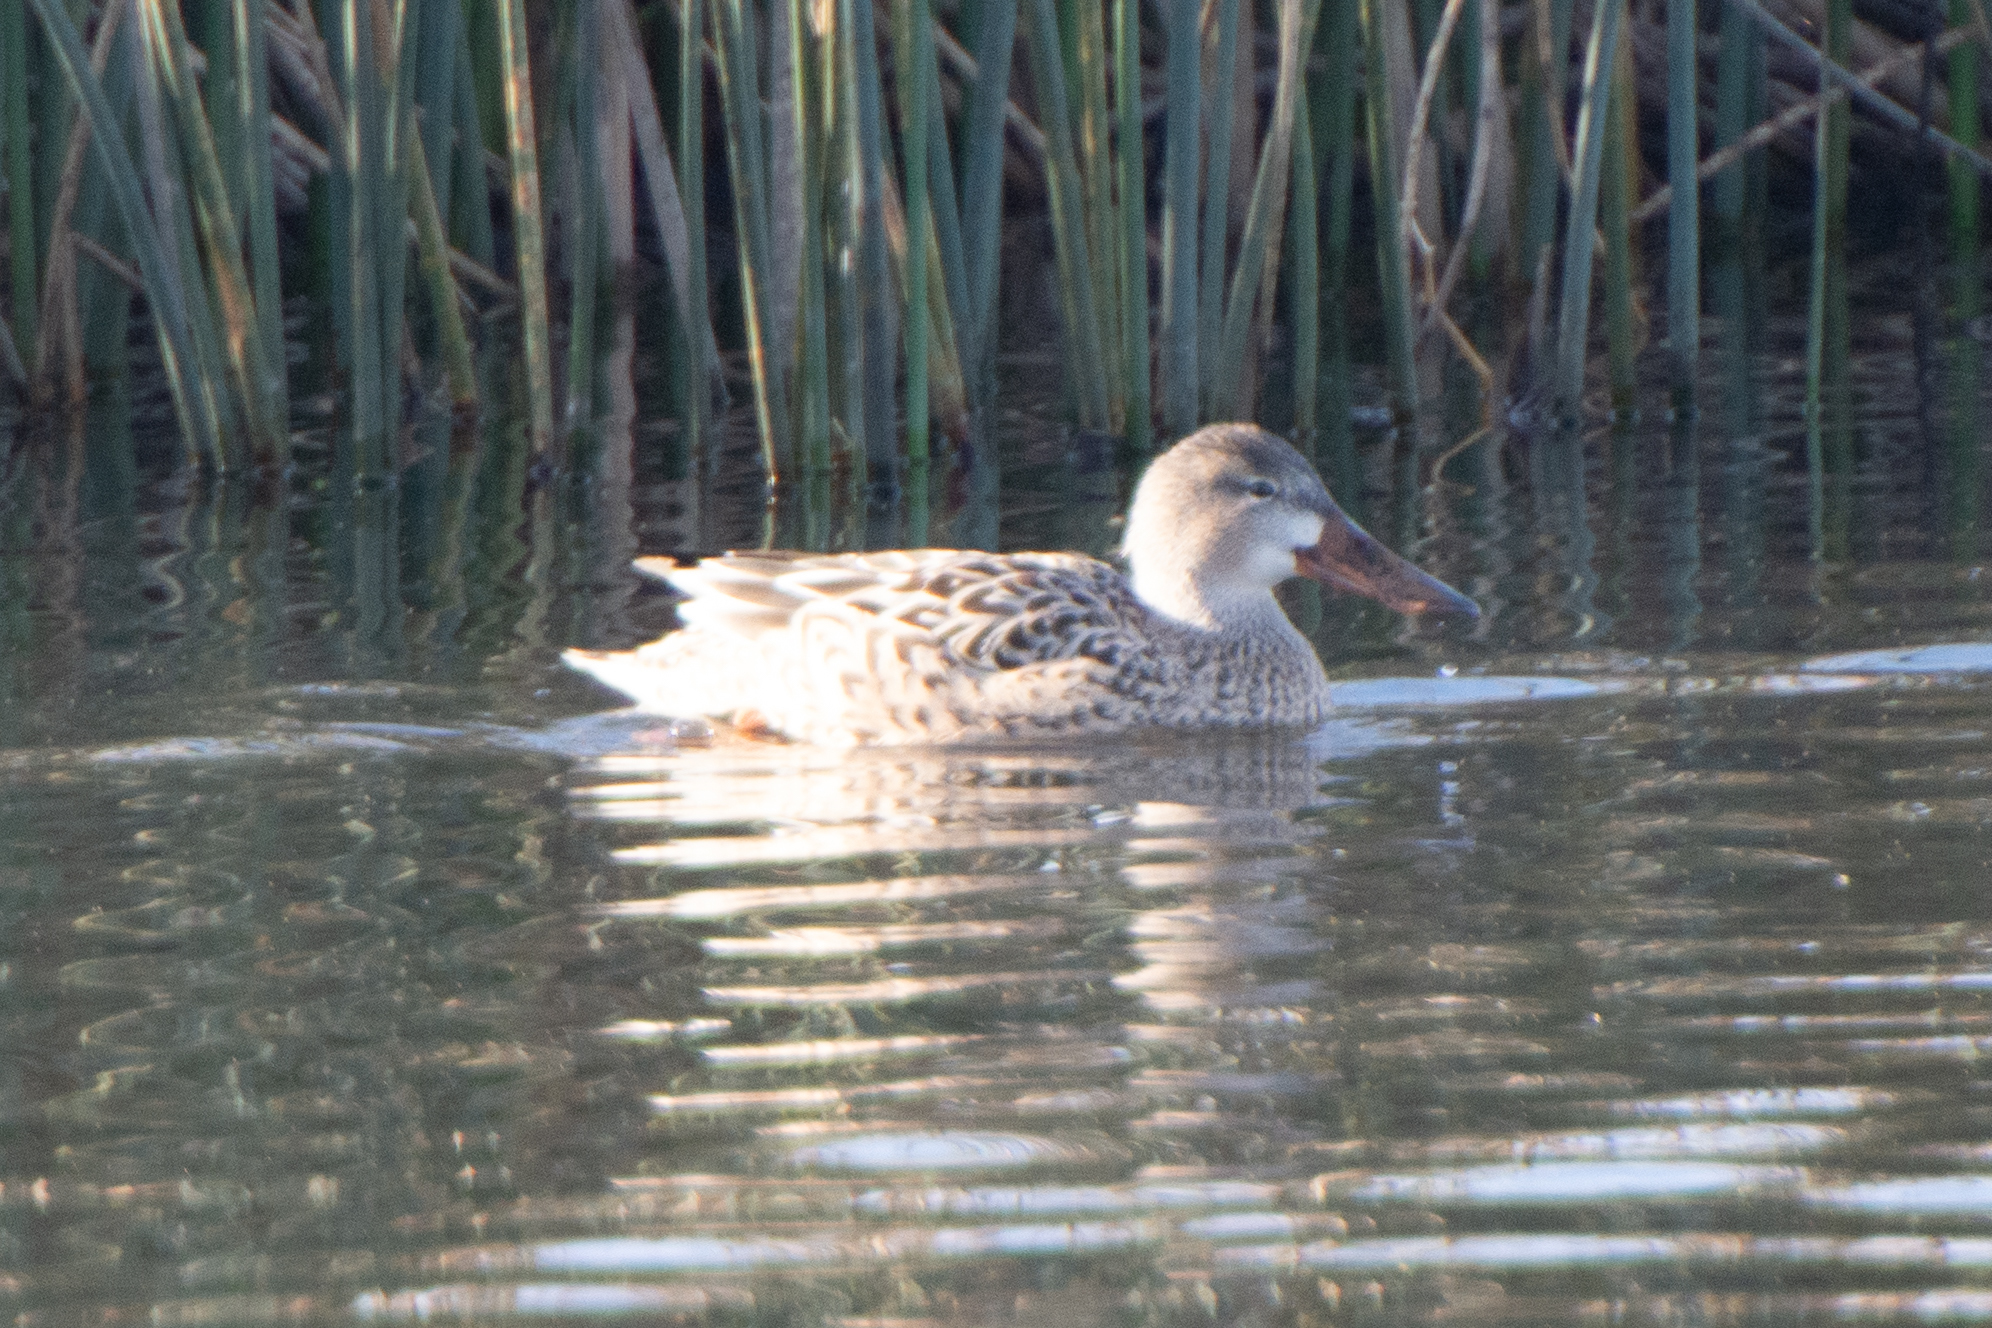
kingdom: Animalia
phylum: Chordata
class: Aves
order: Anseriformes
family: Anatidae
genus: Spatula
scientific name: Spatula clypeata
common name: Northern shoveler
